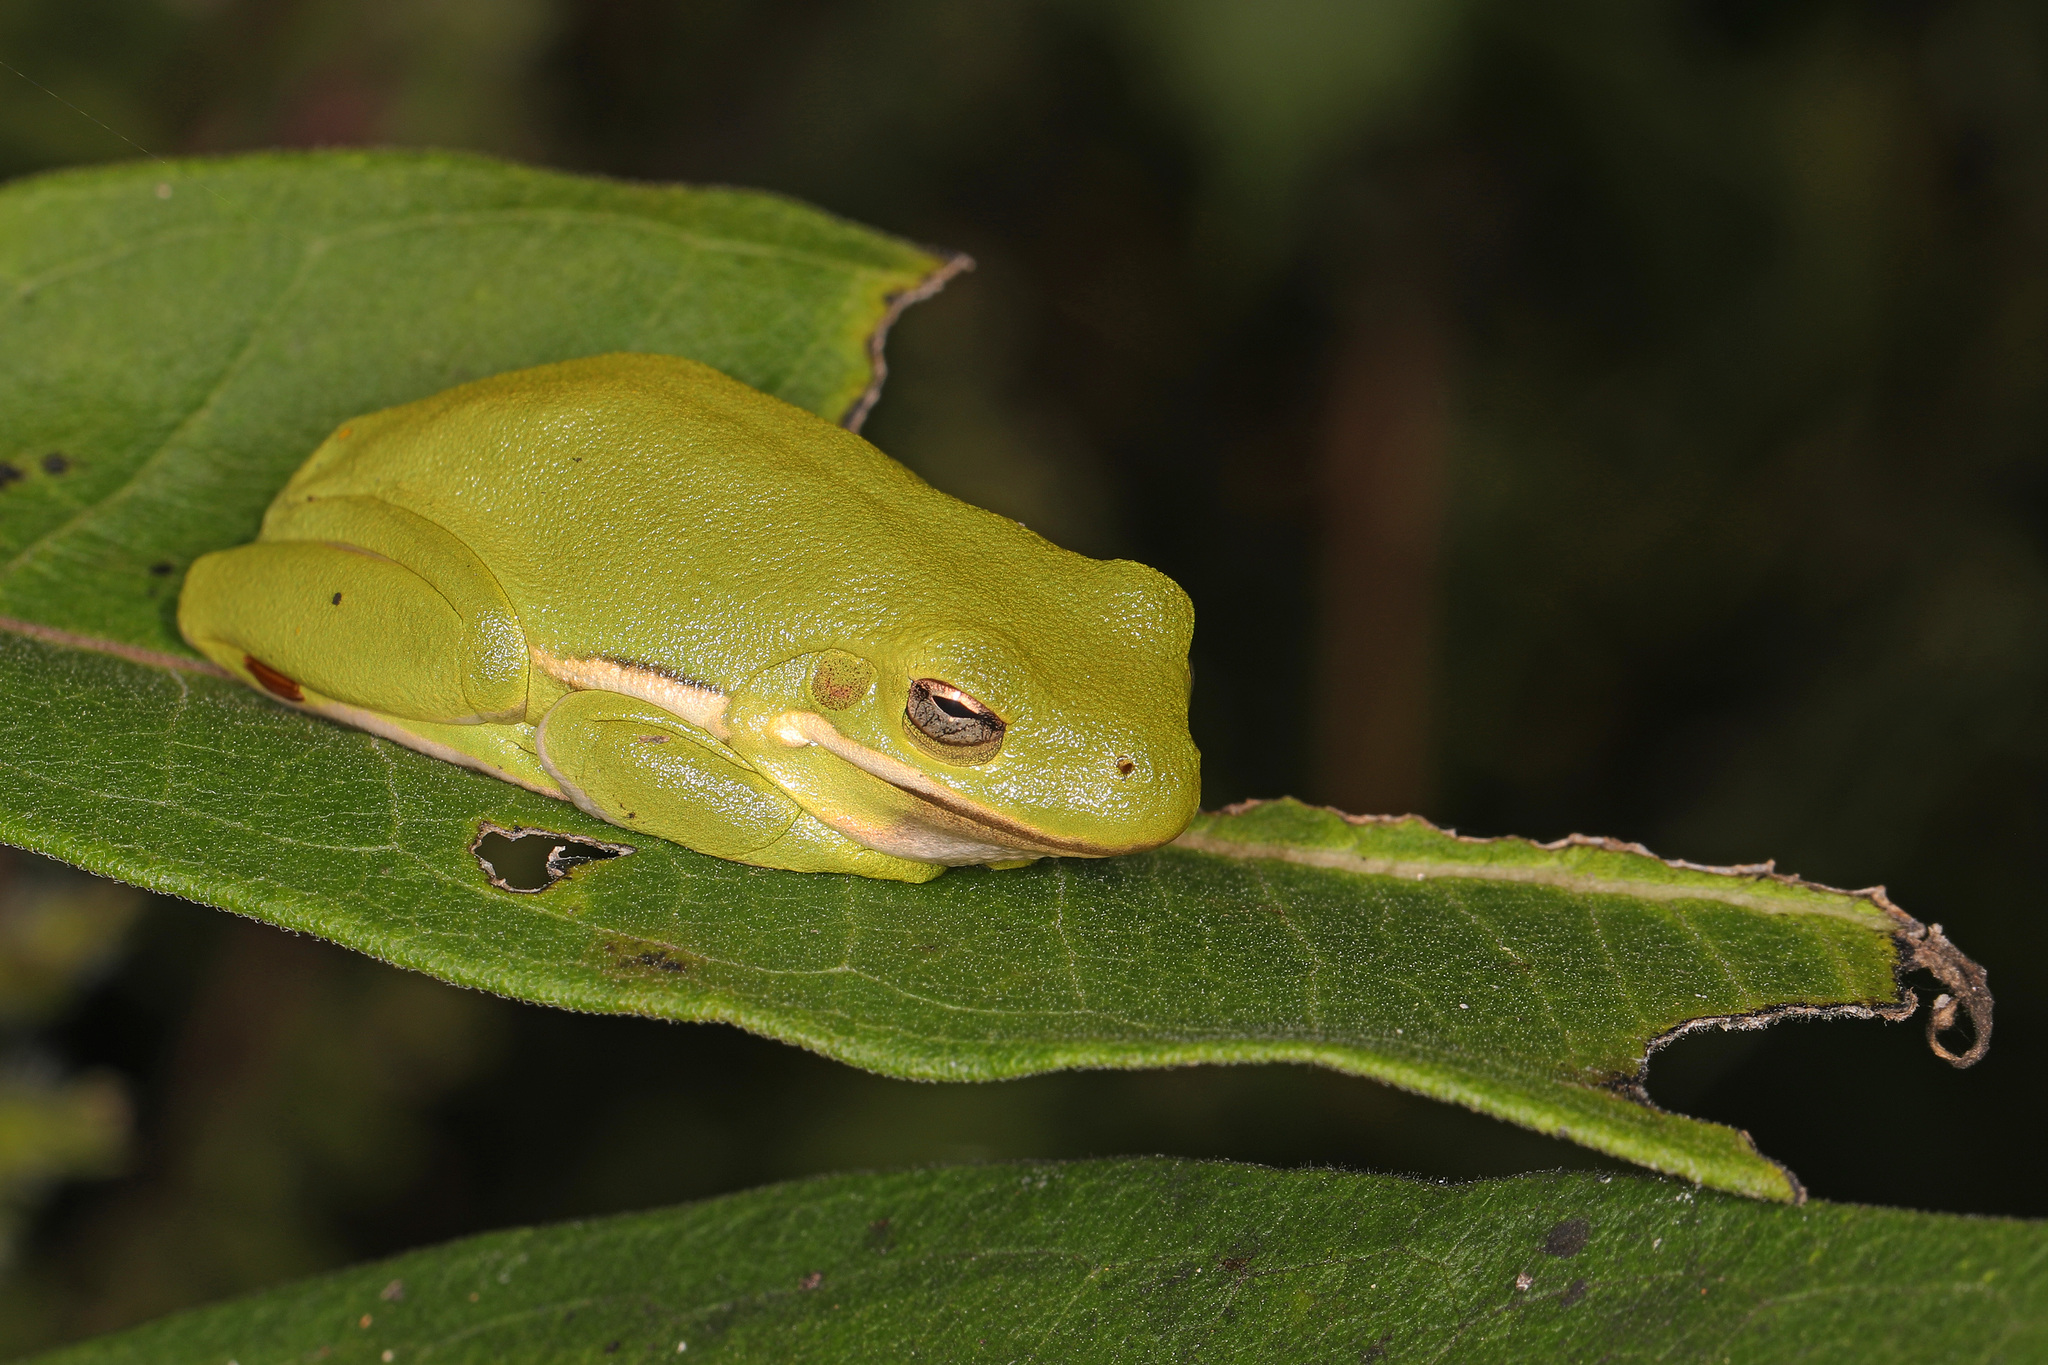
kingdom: Animalia
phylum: Chordata
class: Amphibia
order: Anura
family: Hylidae
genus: Dryophytes
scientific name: Dryophytes cinereus
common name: Green treefrog
